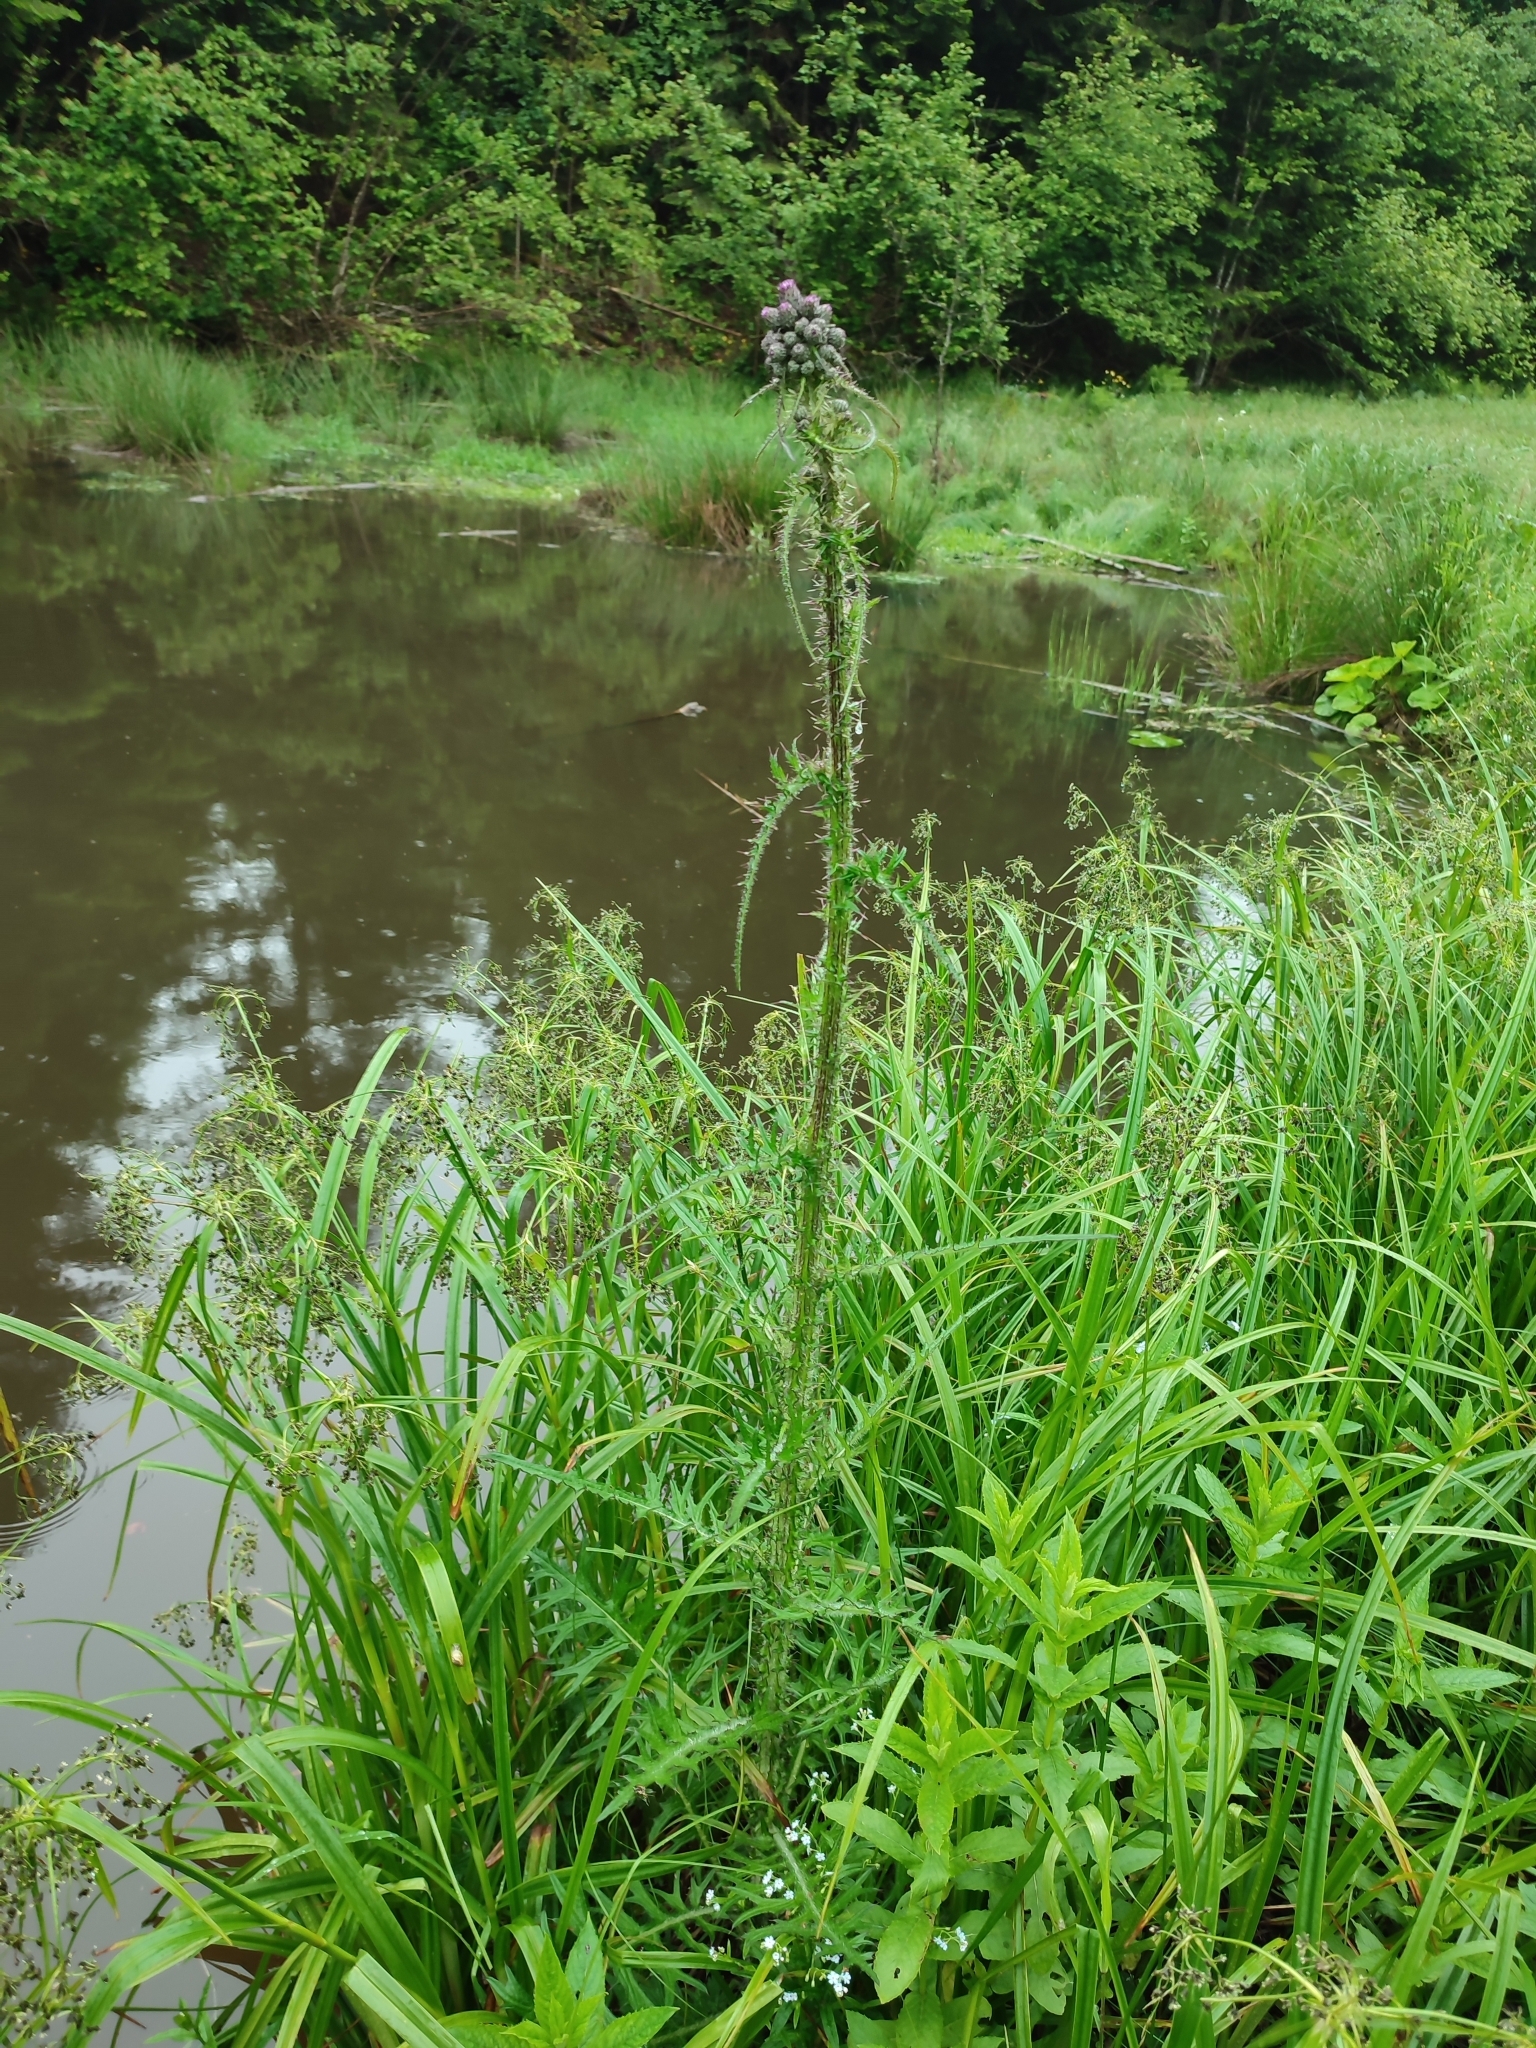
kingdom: Plantae
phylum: Tracheophyta
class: Magnoliopsida
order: Asterales
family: Asteraceae
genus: Cirsium
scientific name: Cirsium palustre
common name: Marsh thistle
